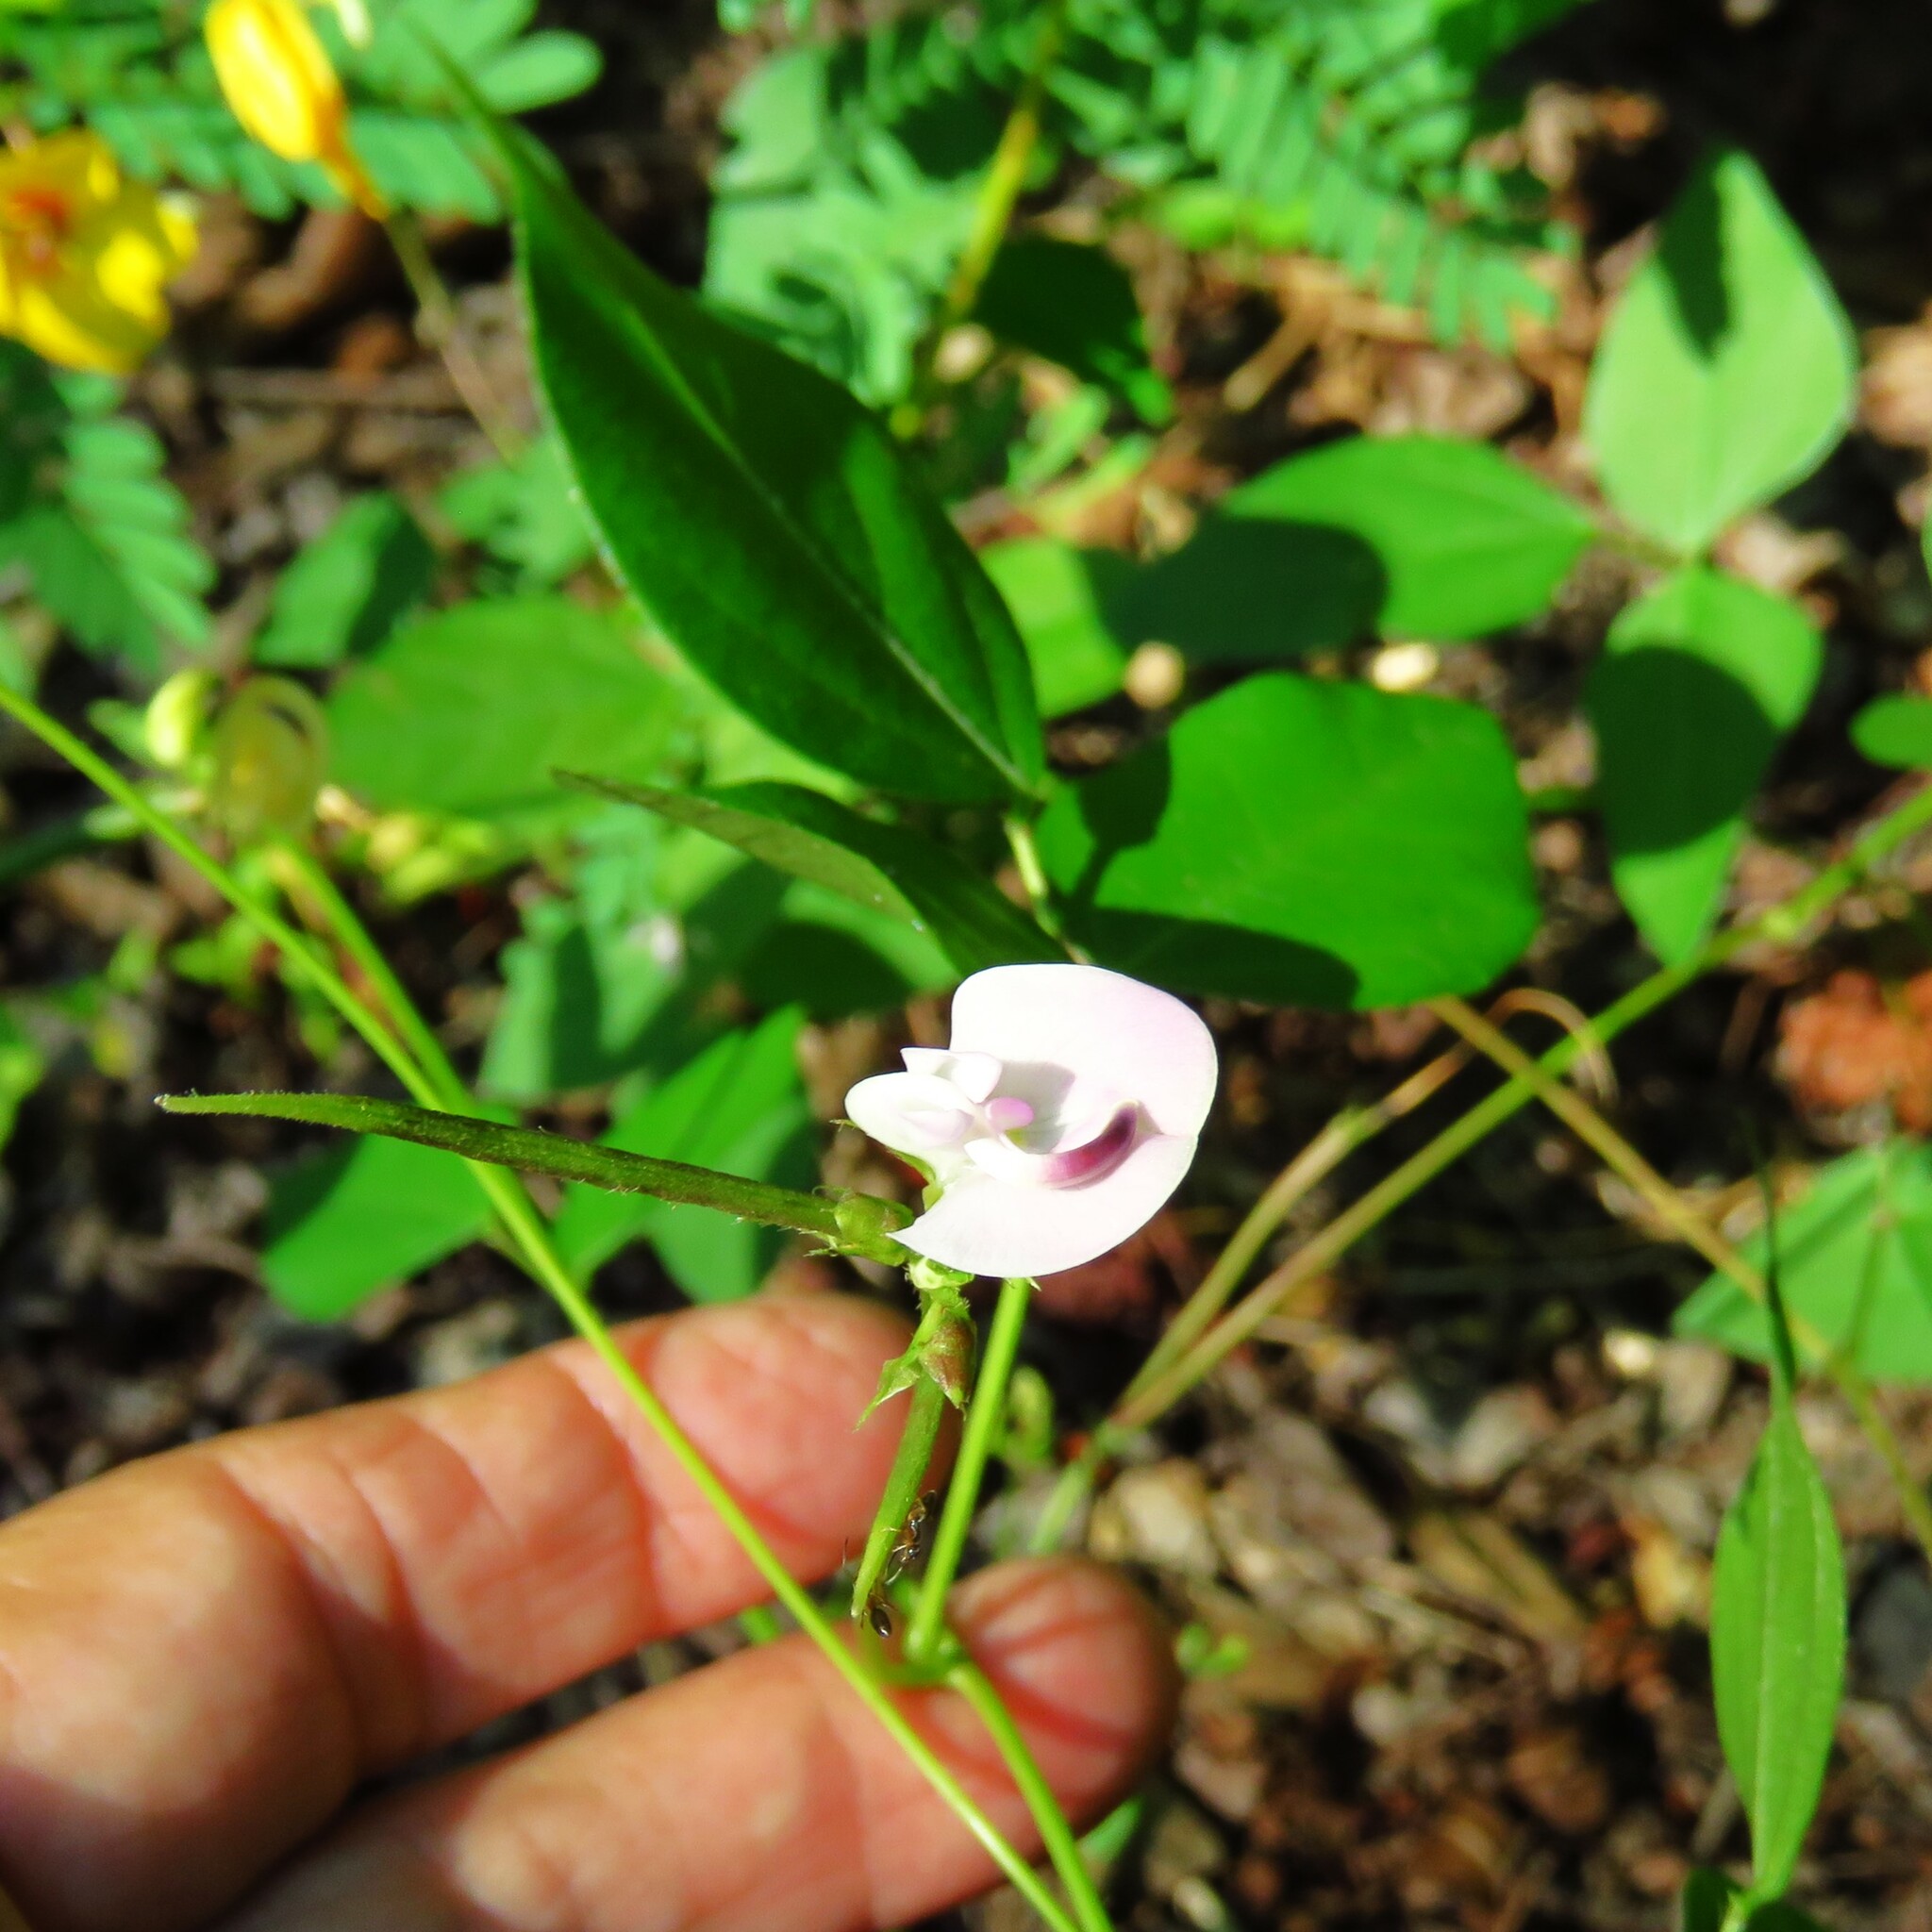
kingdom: Plantae
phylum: Tracheophyta
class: Magnoliopsida
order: Fabales
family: Fabaceae
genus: Strophostyles
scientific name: Strophostyles helvola
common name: Trailing wild bean
